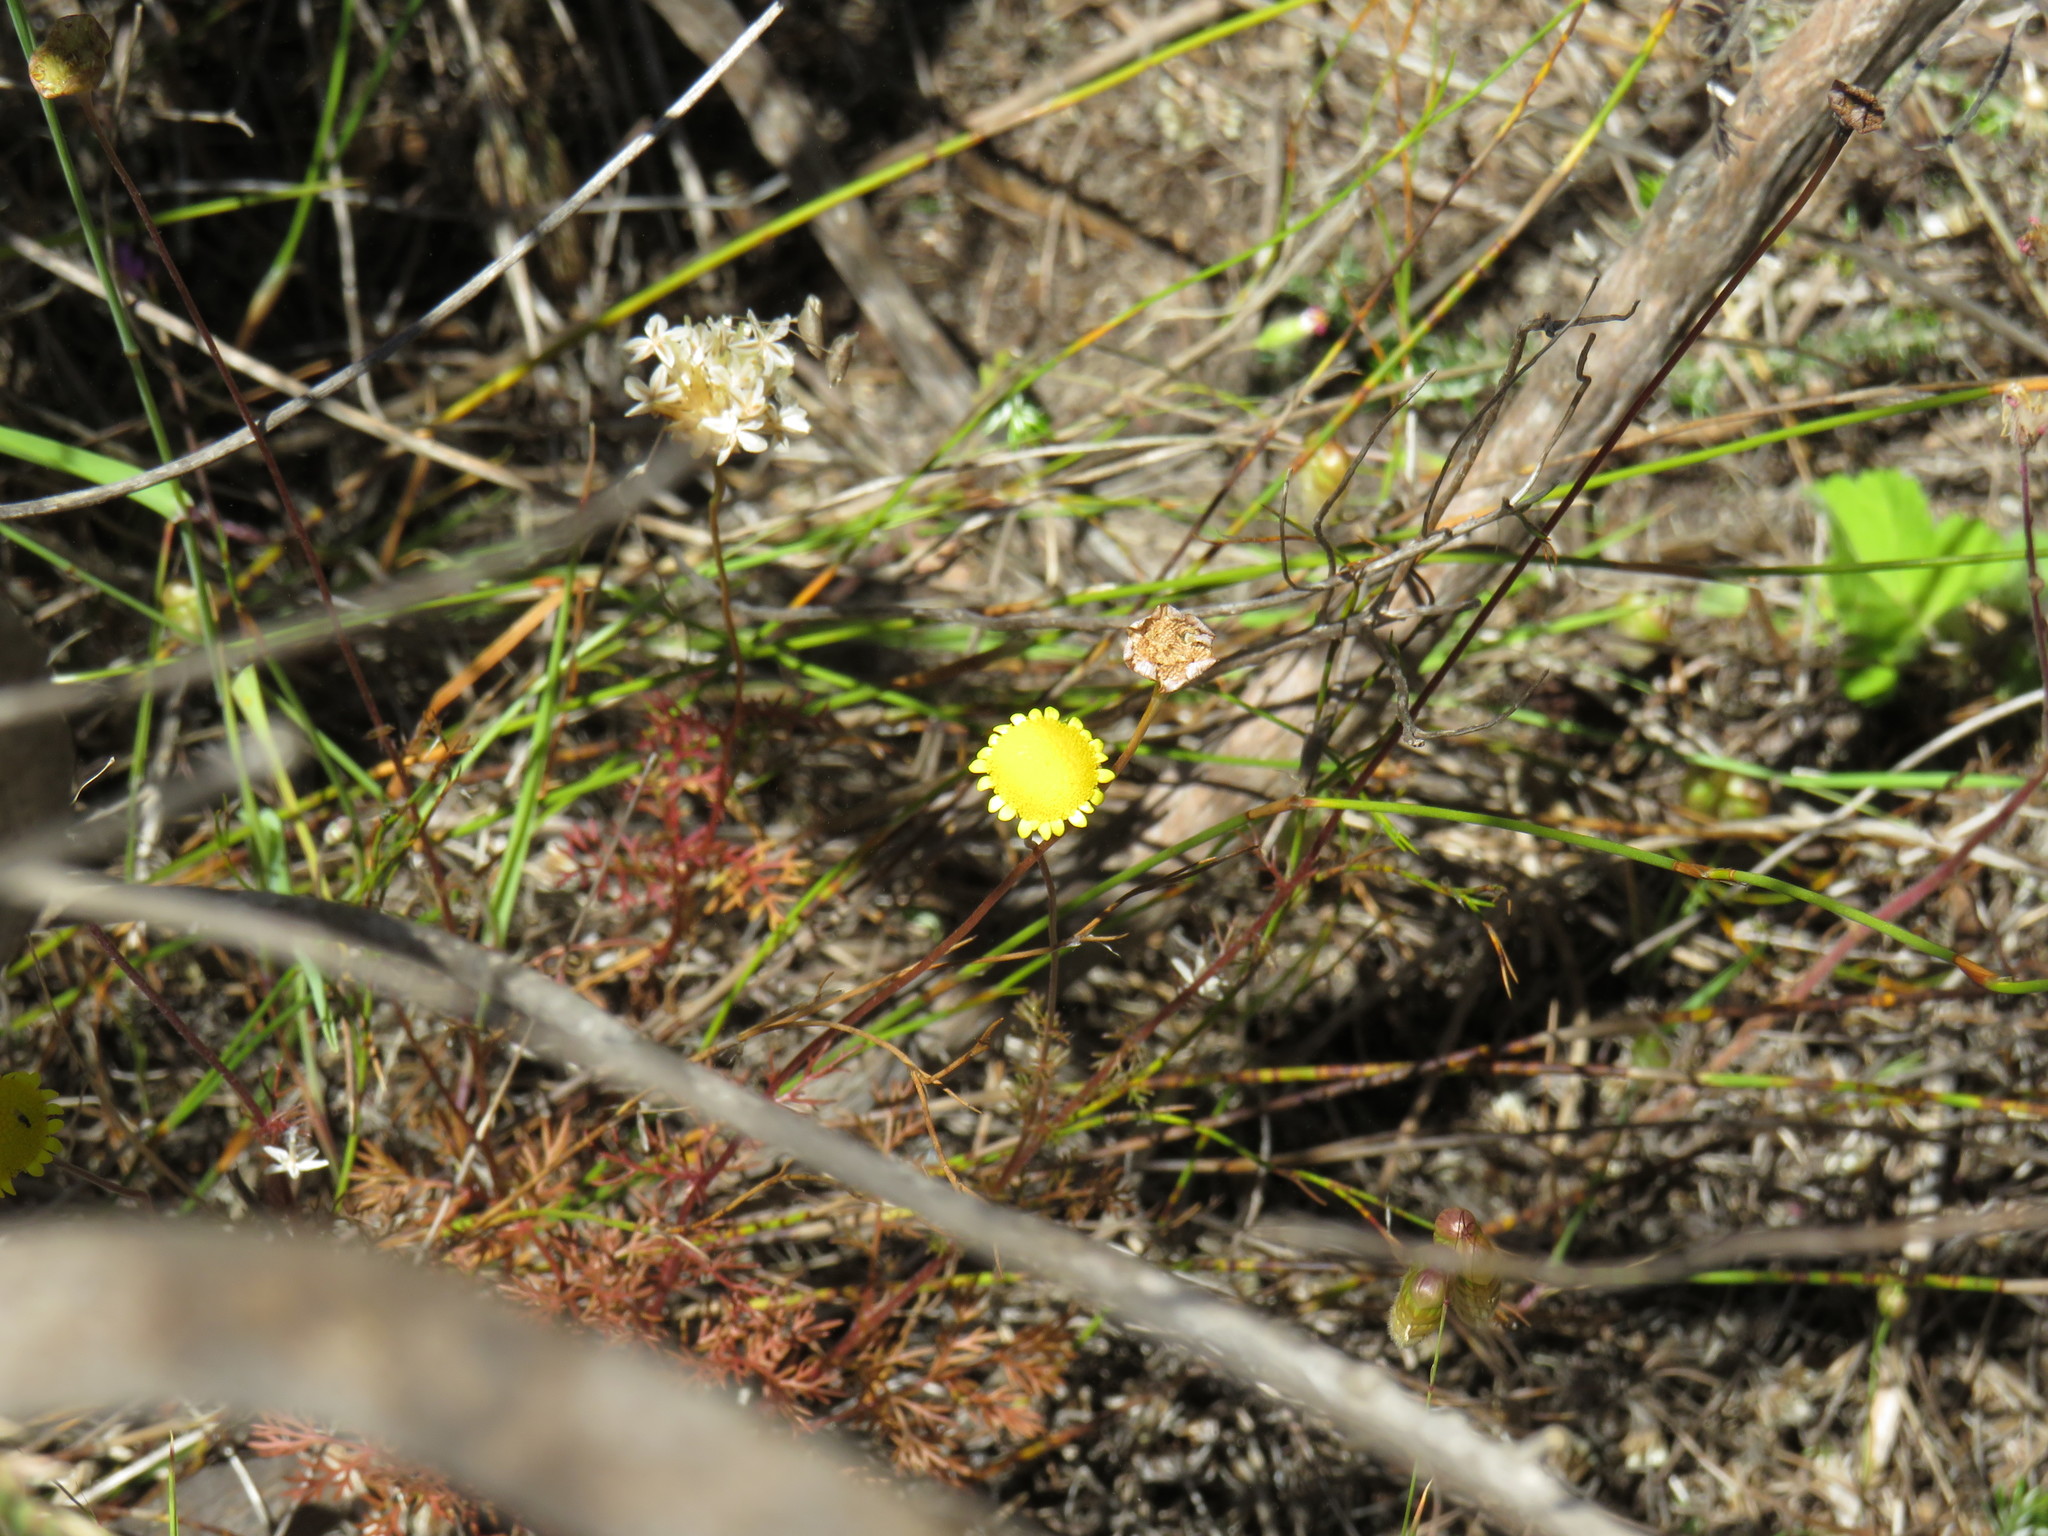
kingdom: Plantae
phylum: Tracheophyta
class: Magnoliopsida
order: Asterales
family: Asteraceae
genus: Cotula
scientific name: Cotula pruinosa
